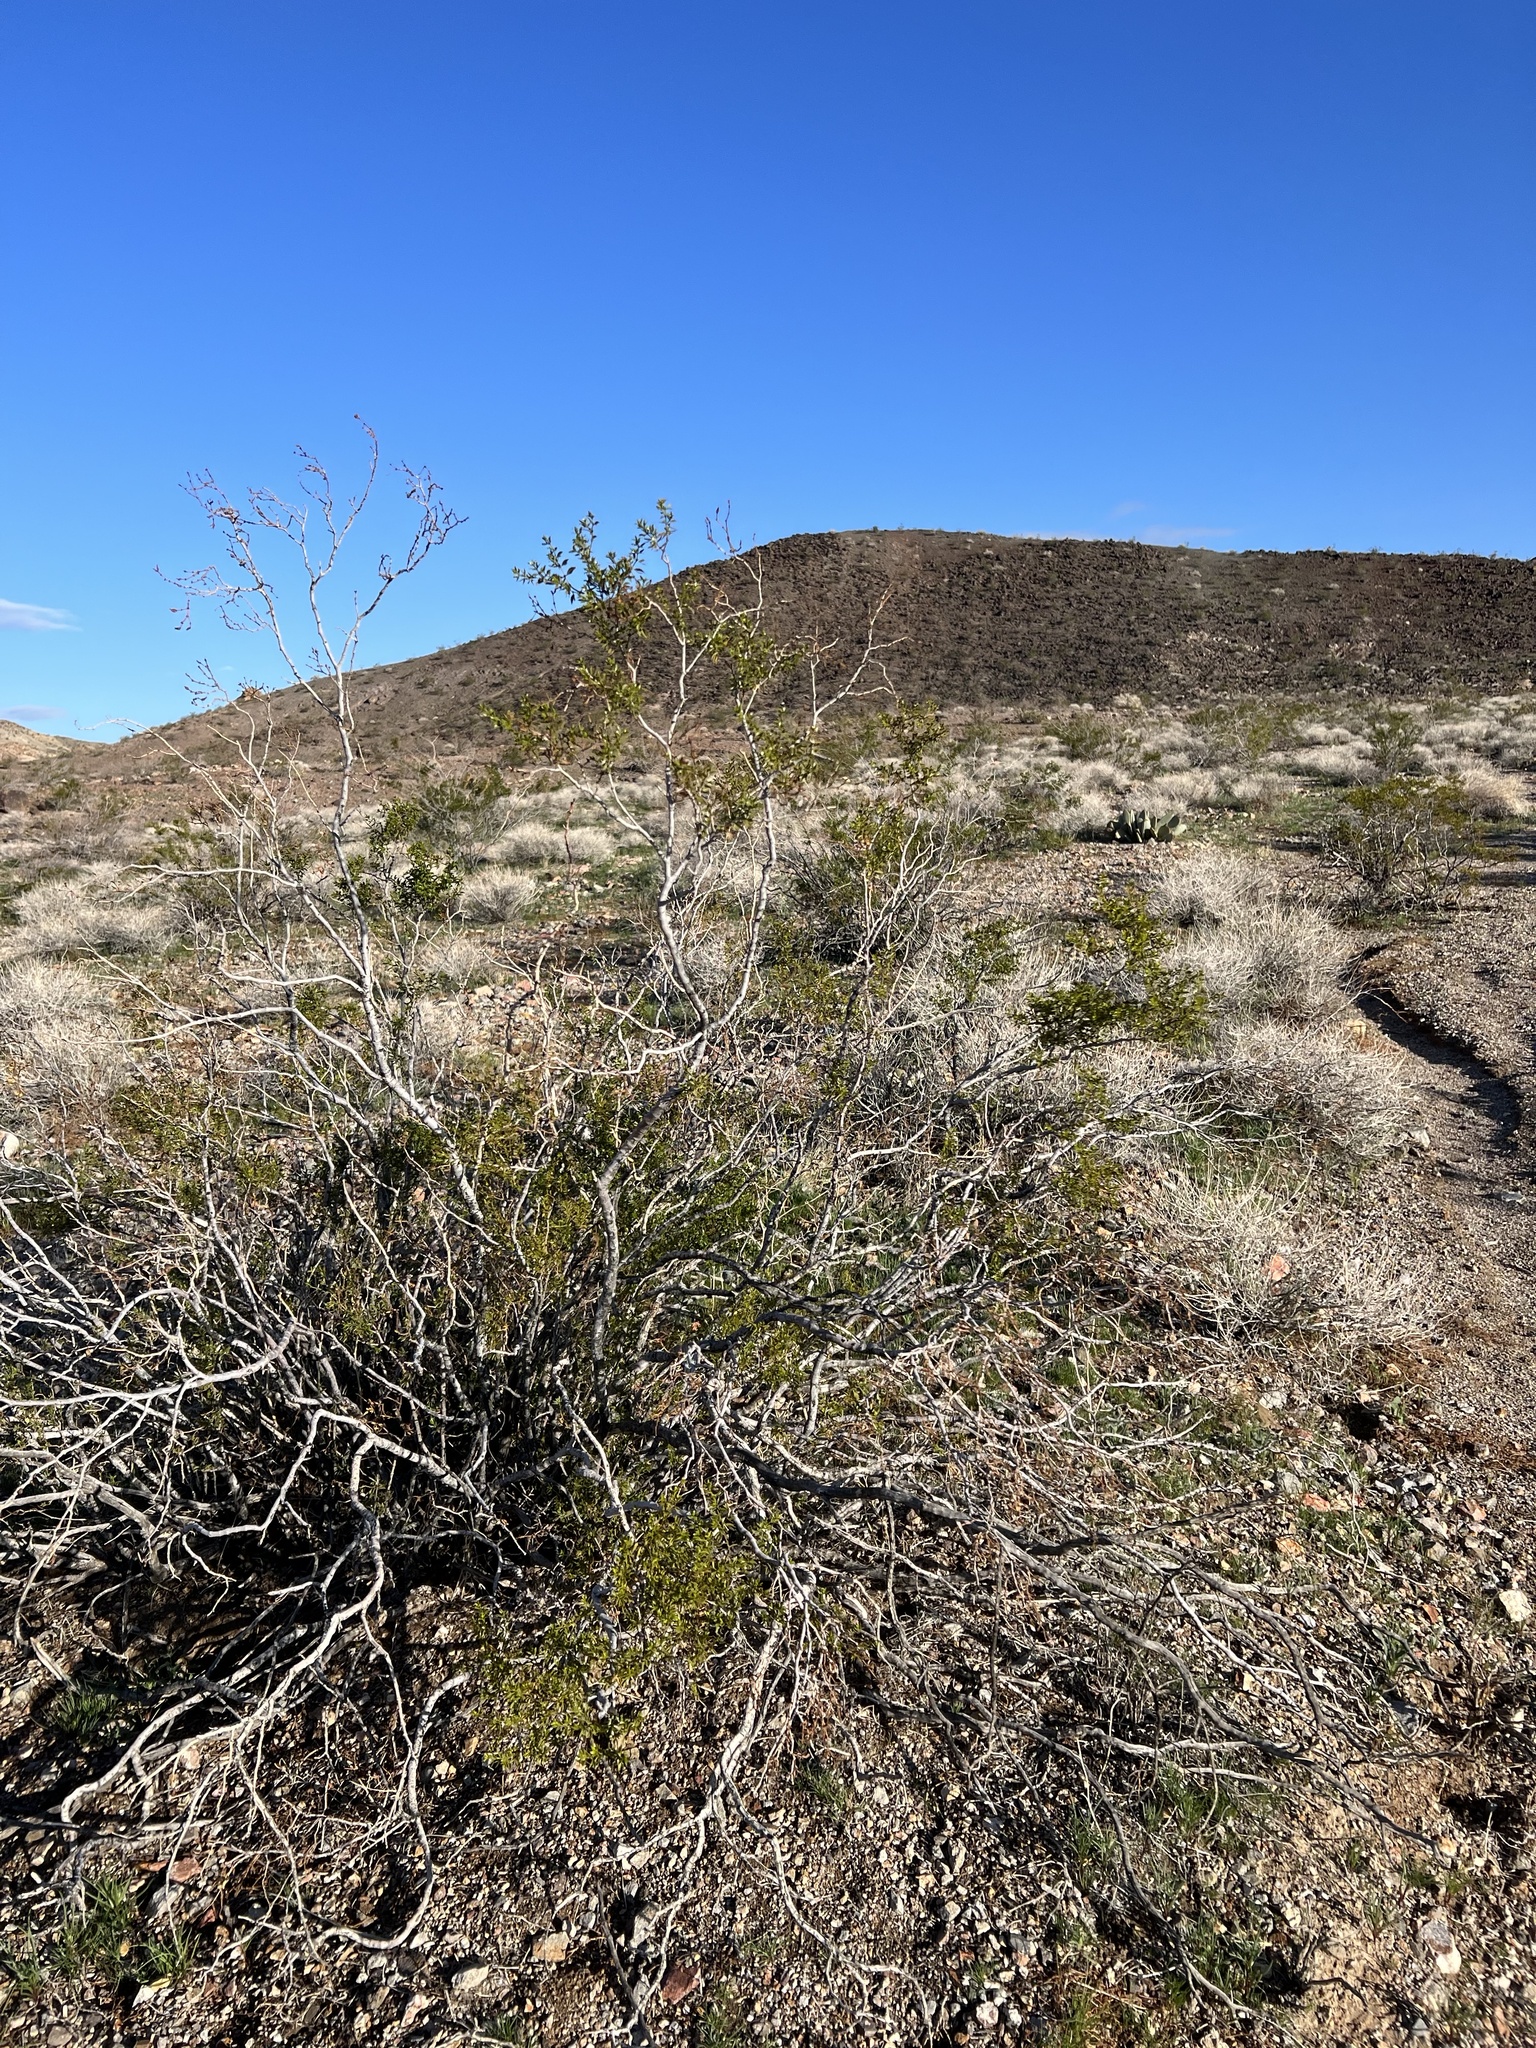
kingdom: Plantae
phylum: Tracheophyta
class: Magnoliopsida
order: Zygophyllales
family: Zygophyllaceae
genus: Larrea
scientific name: Larrea tridentata
